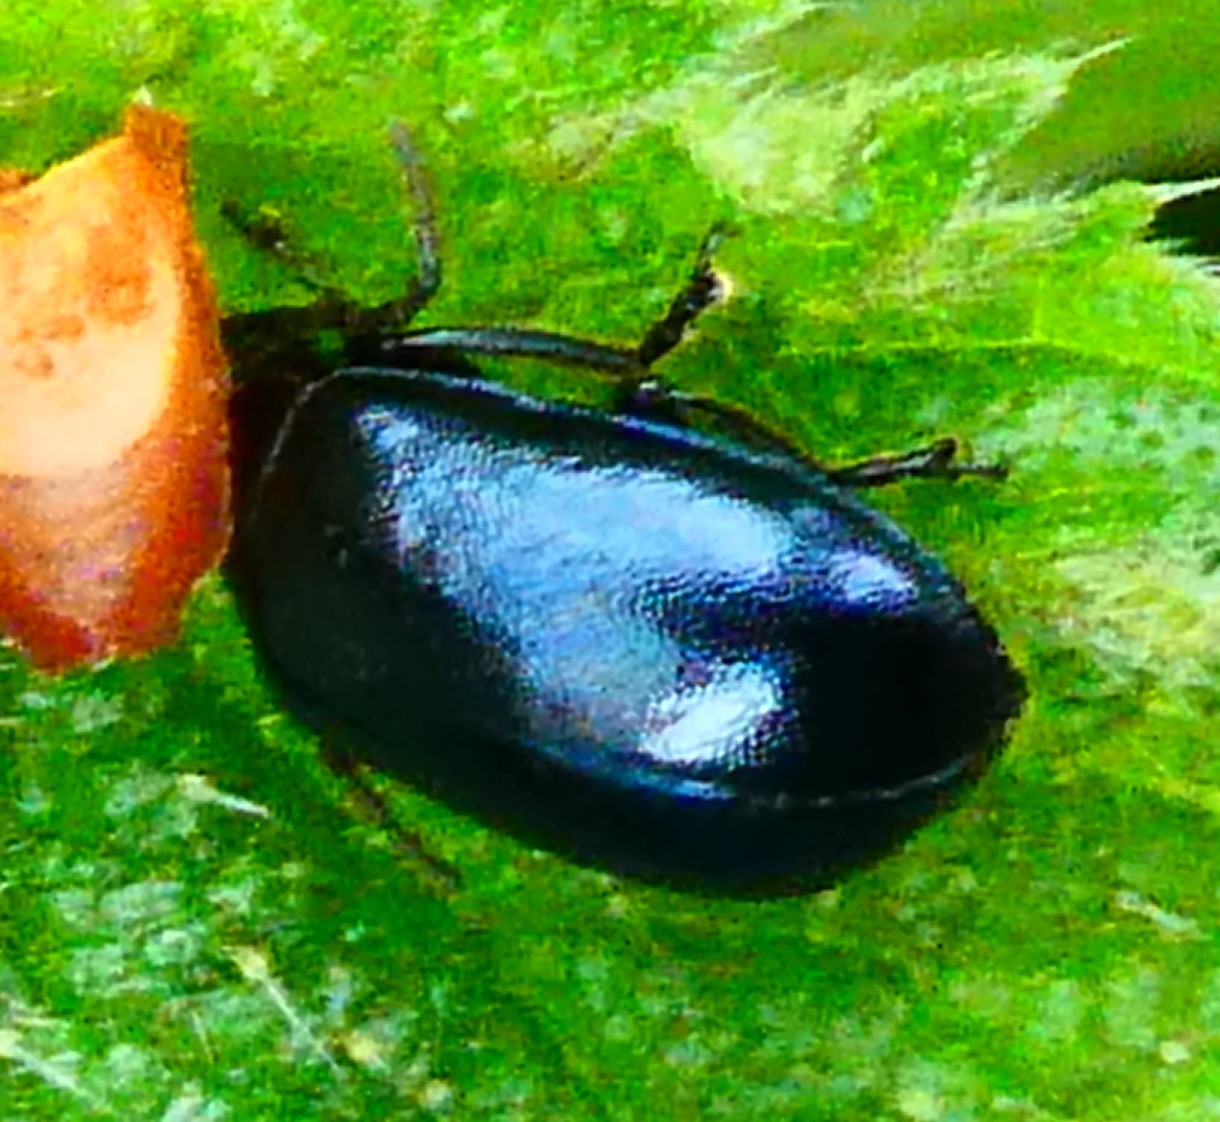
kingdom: Animalia
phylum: Arthropoda
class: Insecta
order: Coleoptera
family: Chrysomelidae
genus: Agelastica
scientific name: Agelastica alni
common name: Alder leaf beetle
